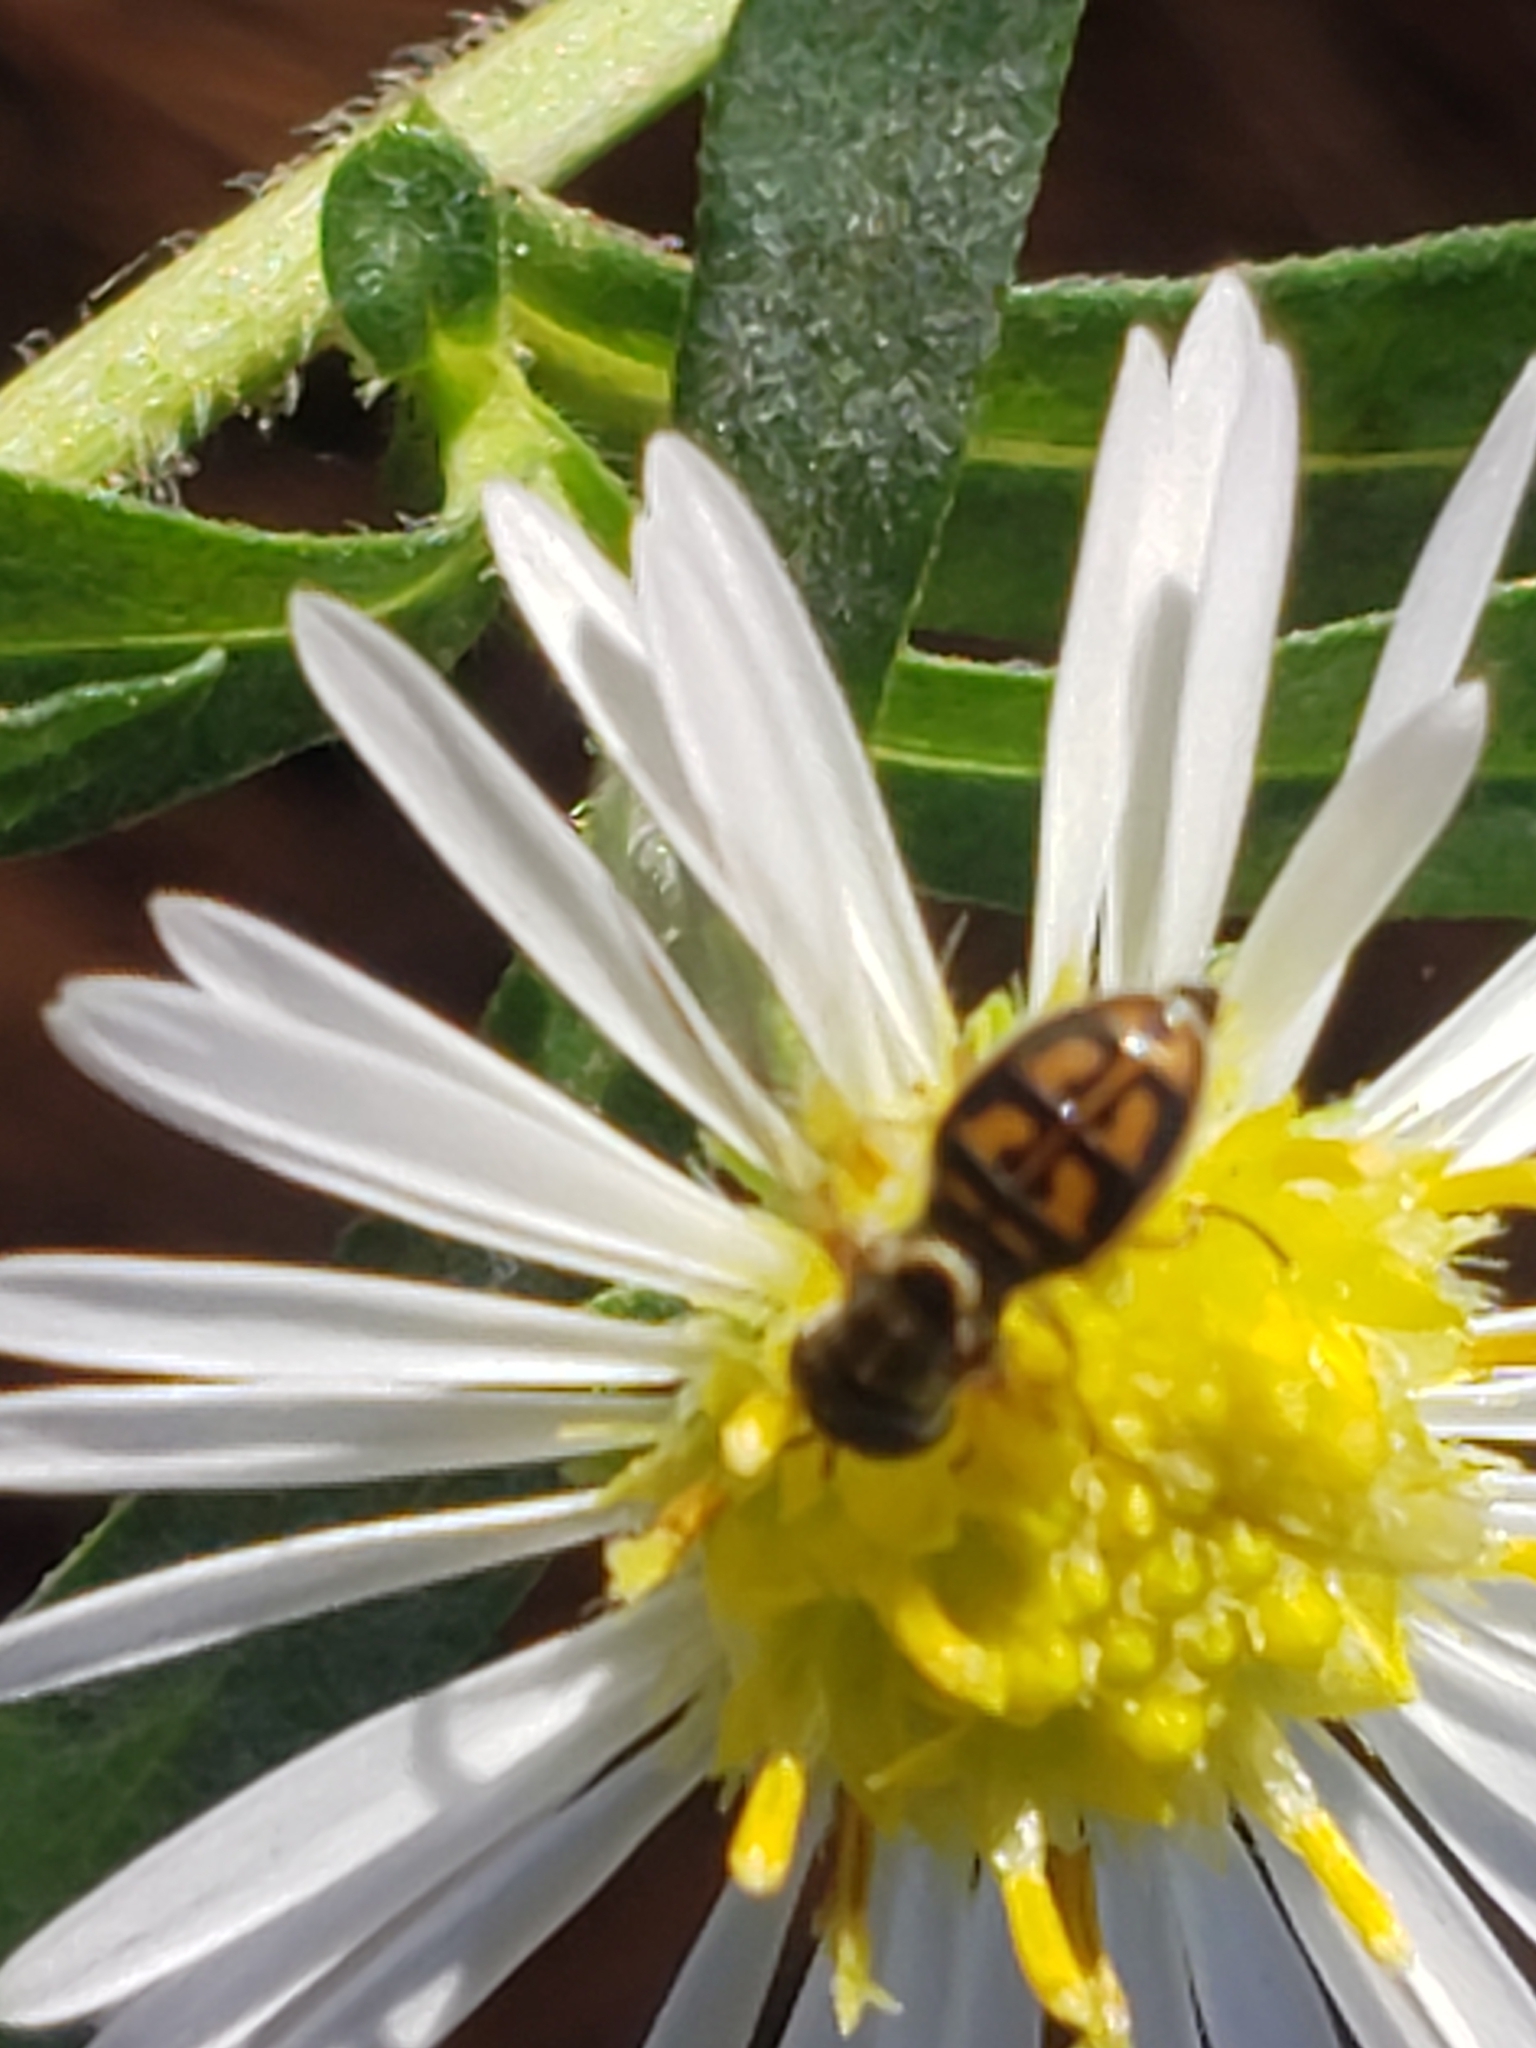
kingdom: Animalia
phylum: Arthropoda
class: Insecta
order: Diptera
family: Syrphidae
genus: Toxomerus
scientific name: Toxomerus marginatus
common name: Syrphid fly
